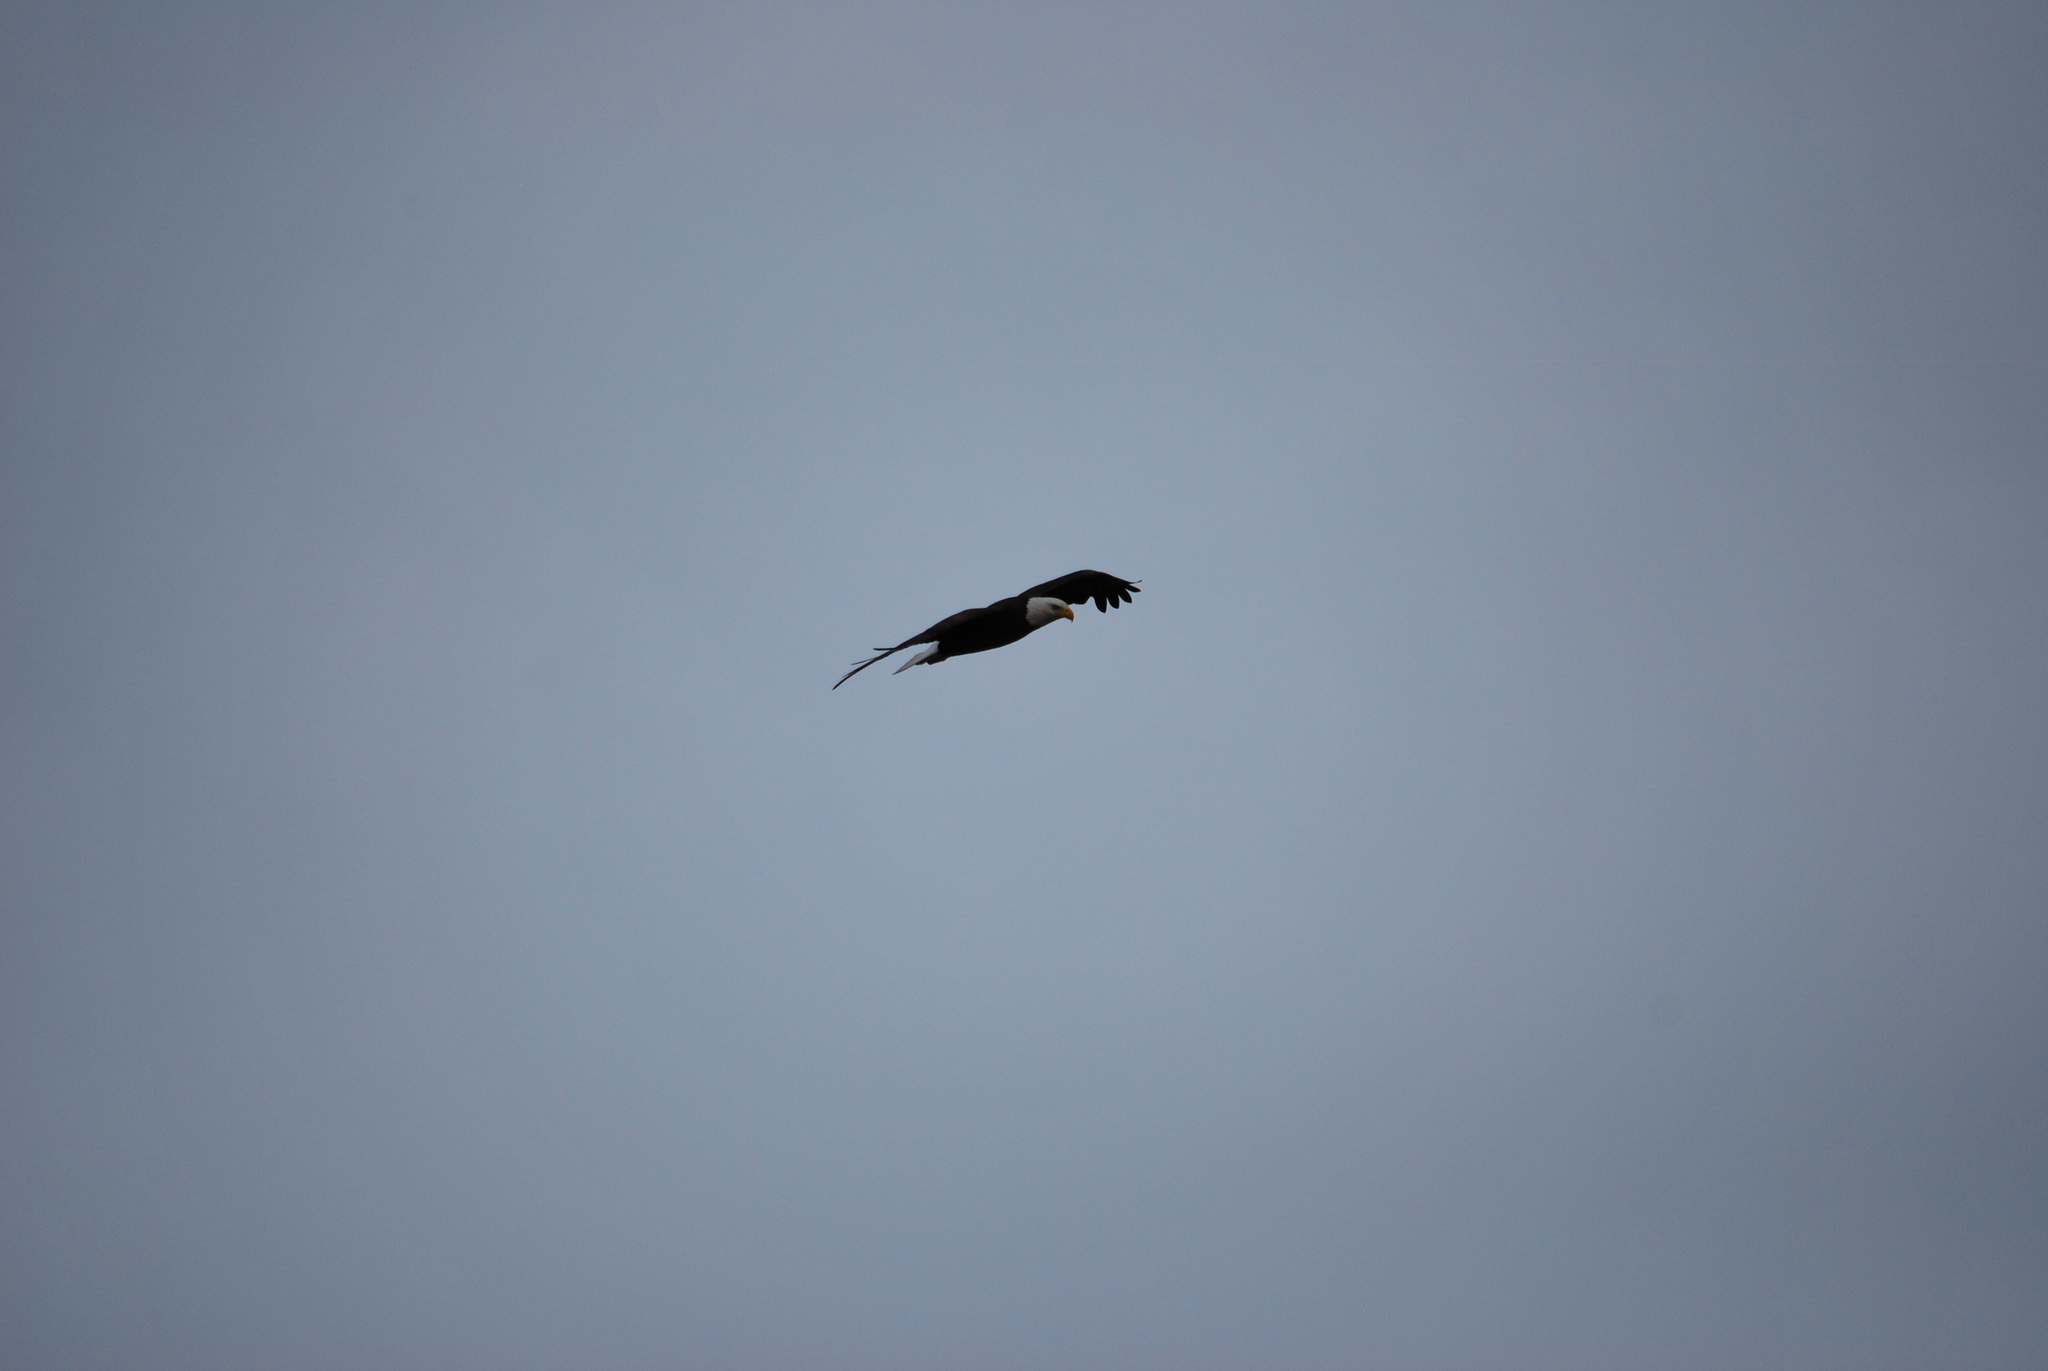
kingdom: Animalia
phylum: Chordata
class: Aves
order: Accipitriformes
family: Accipitridae
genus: Haliaeetus
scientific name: Haliaeetus leucocephalus
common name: Bald eagle
